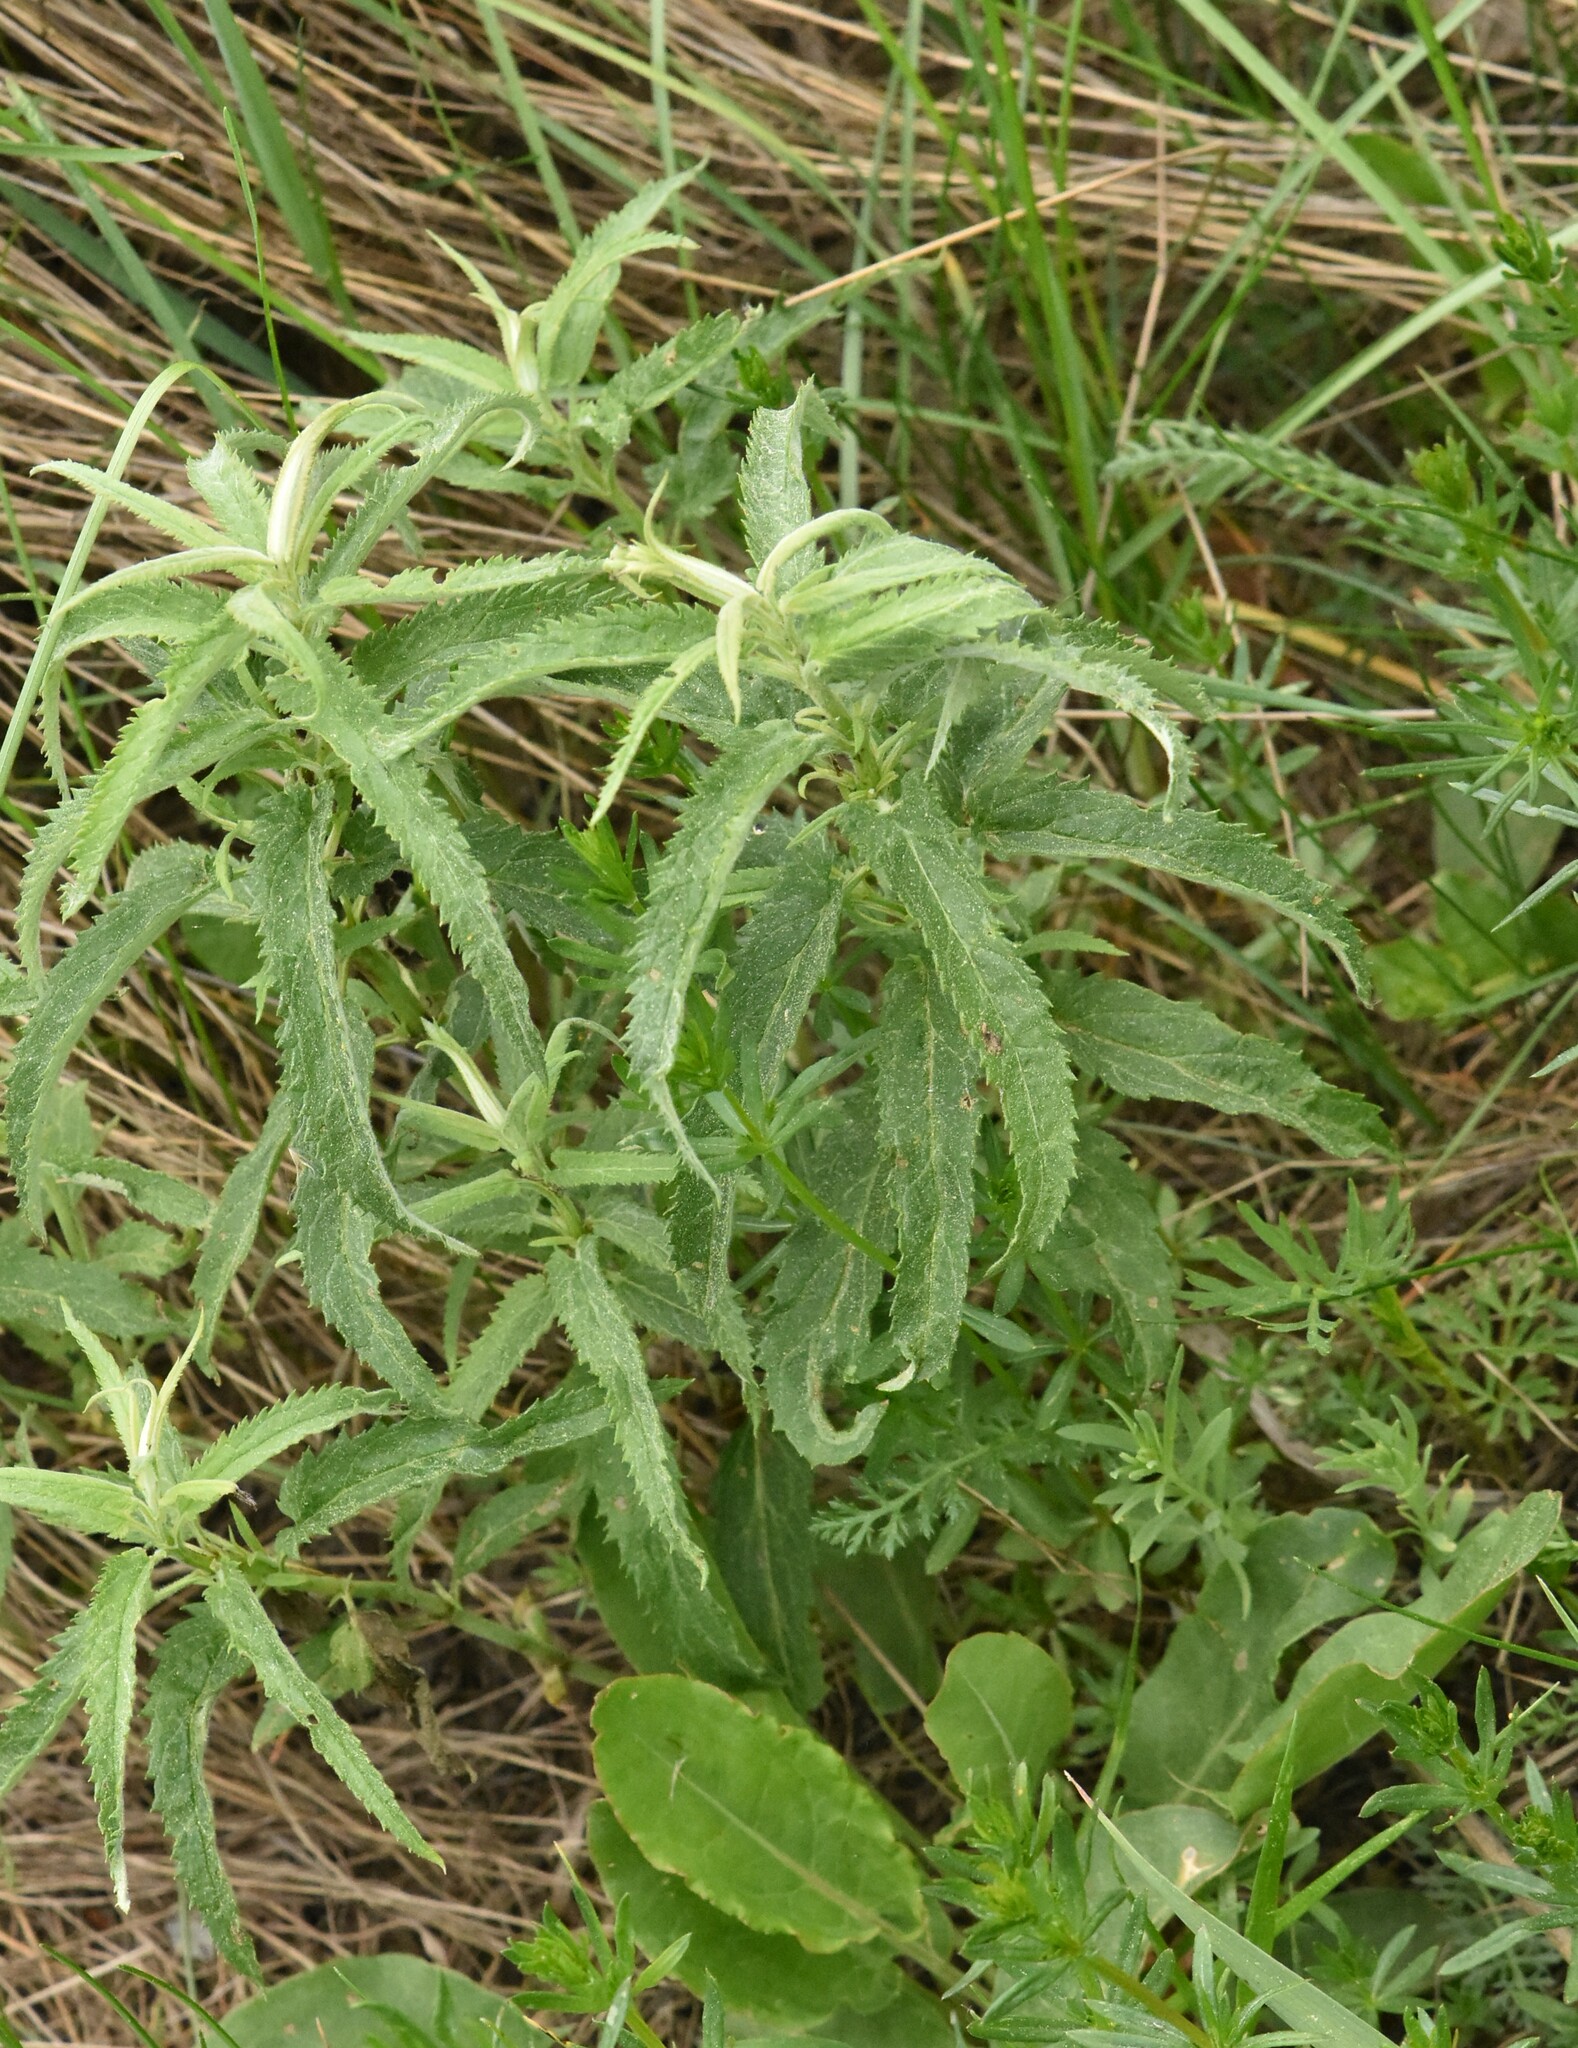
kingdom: Plantae
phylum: Tracheophyta
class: Magnoliopsida
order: Lamiales
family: Plantaginaceae
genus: Veronica
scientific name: Veronica longifolia
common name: Garden speedwell
